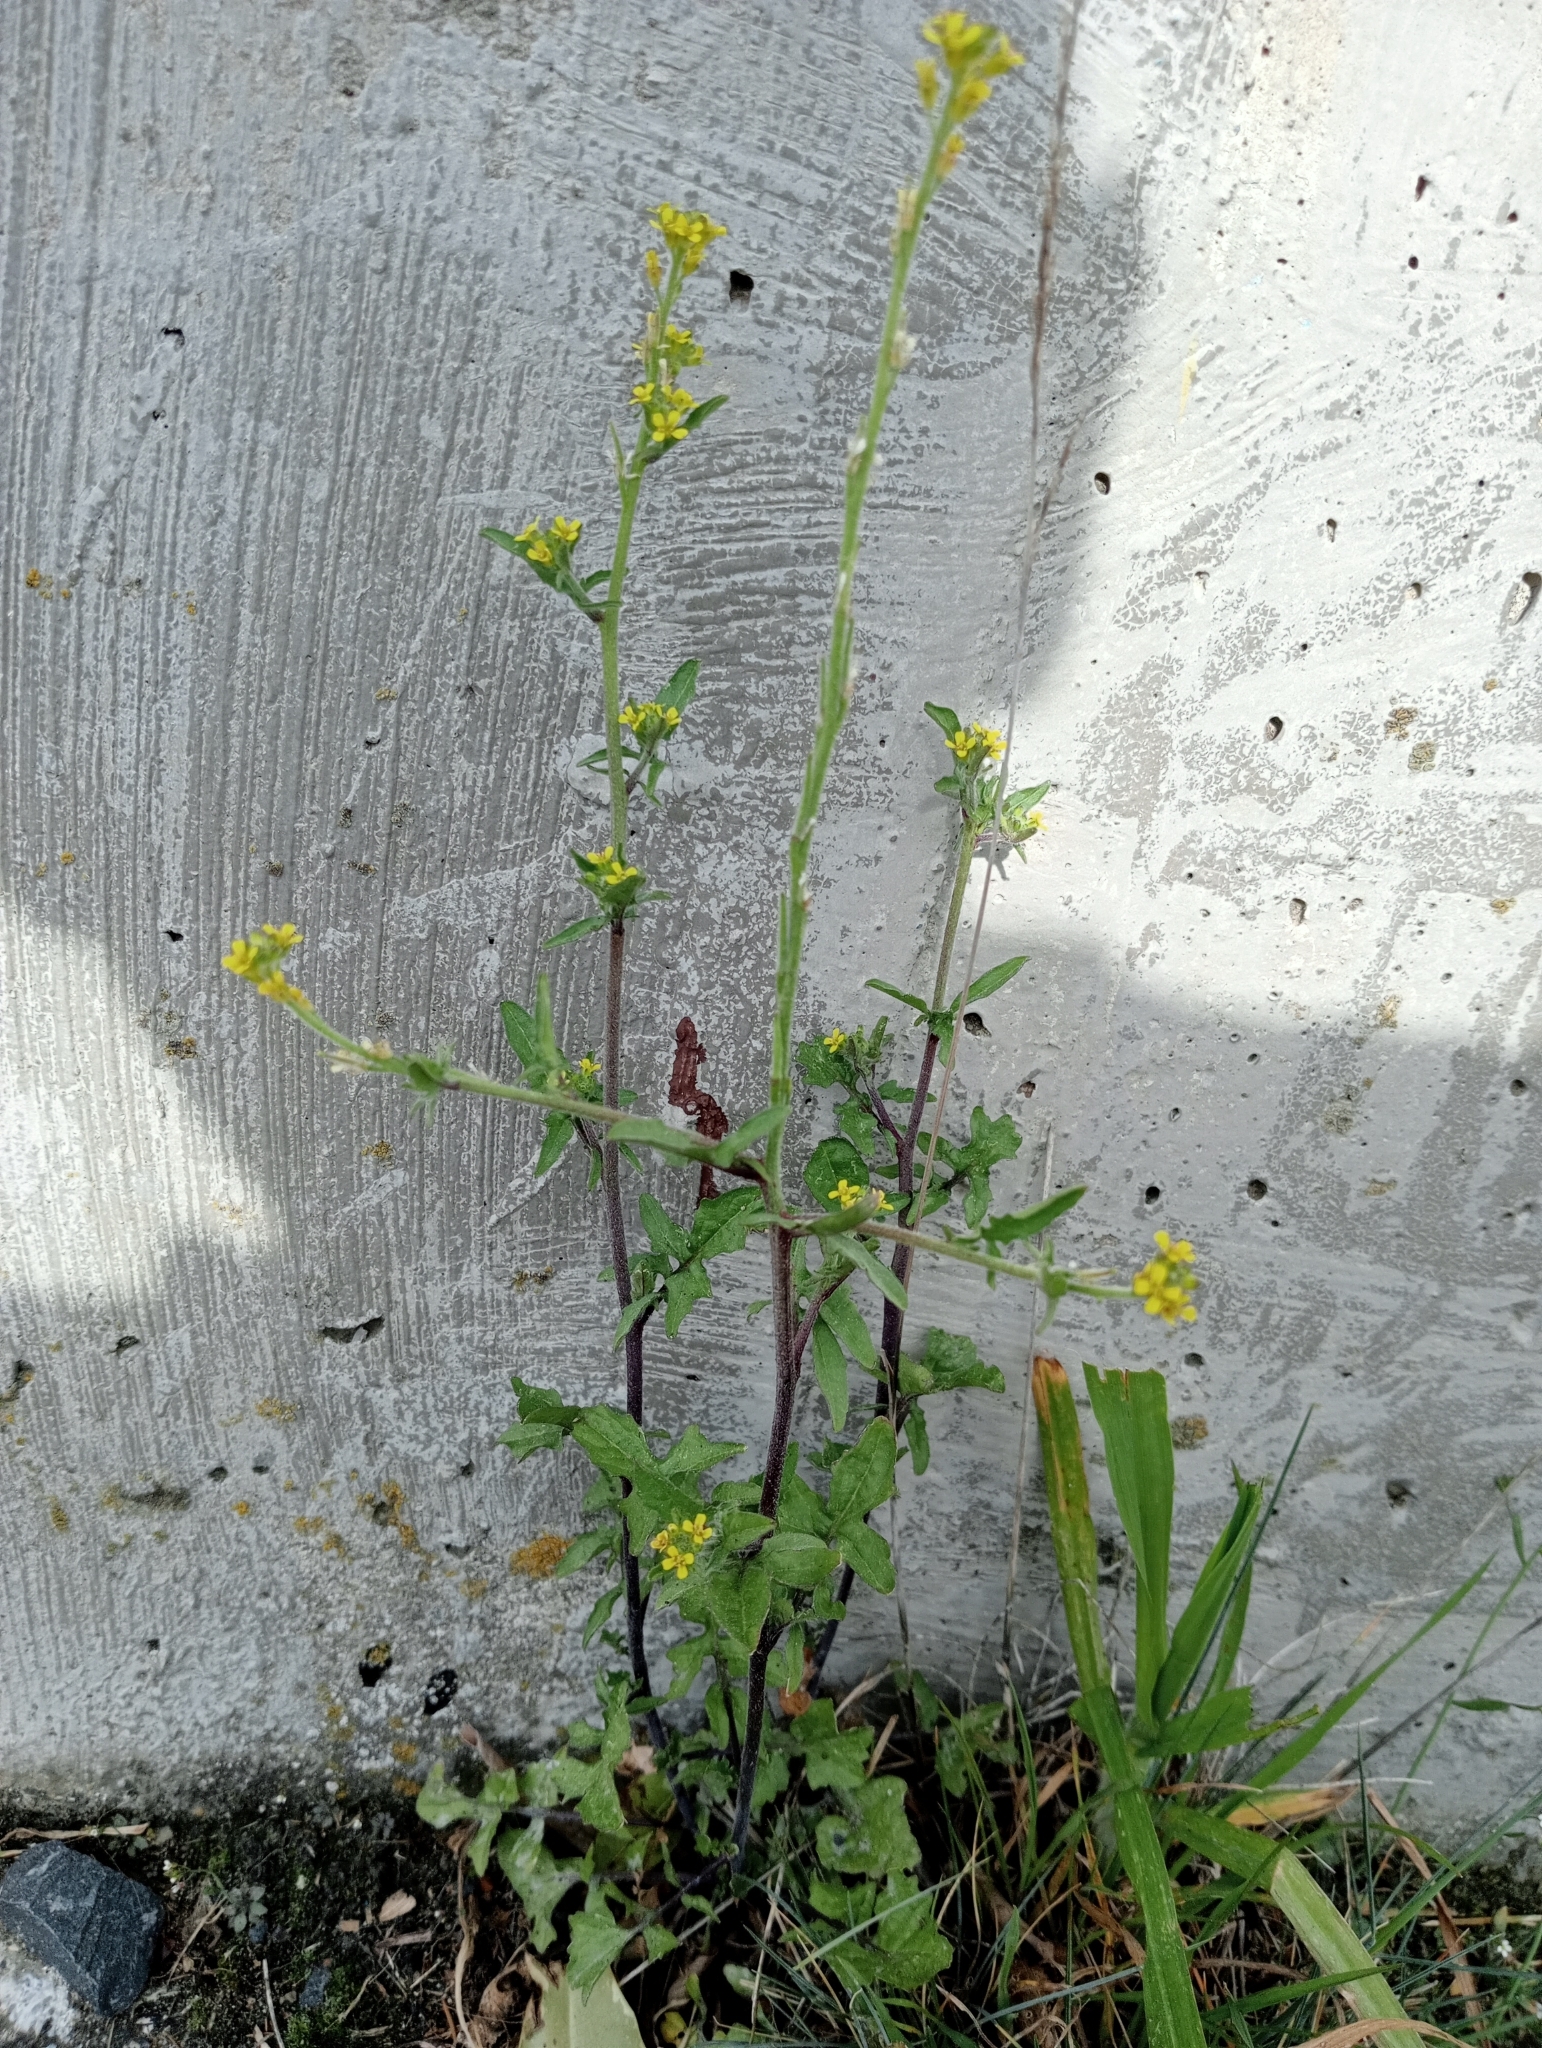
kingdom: Plantae
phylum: Tracheophyta
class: Magnoliopsida
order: Brassicales
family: Brassicaceae
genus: Sisymbrium
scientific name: Sisymbrium officinale
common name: Hedge mustard
